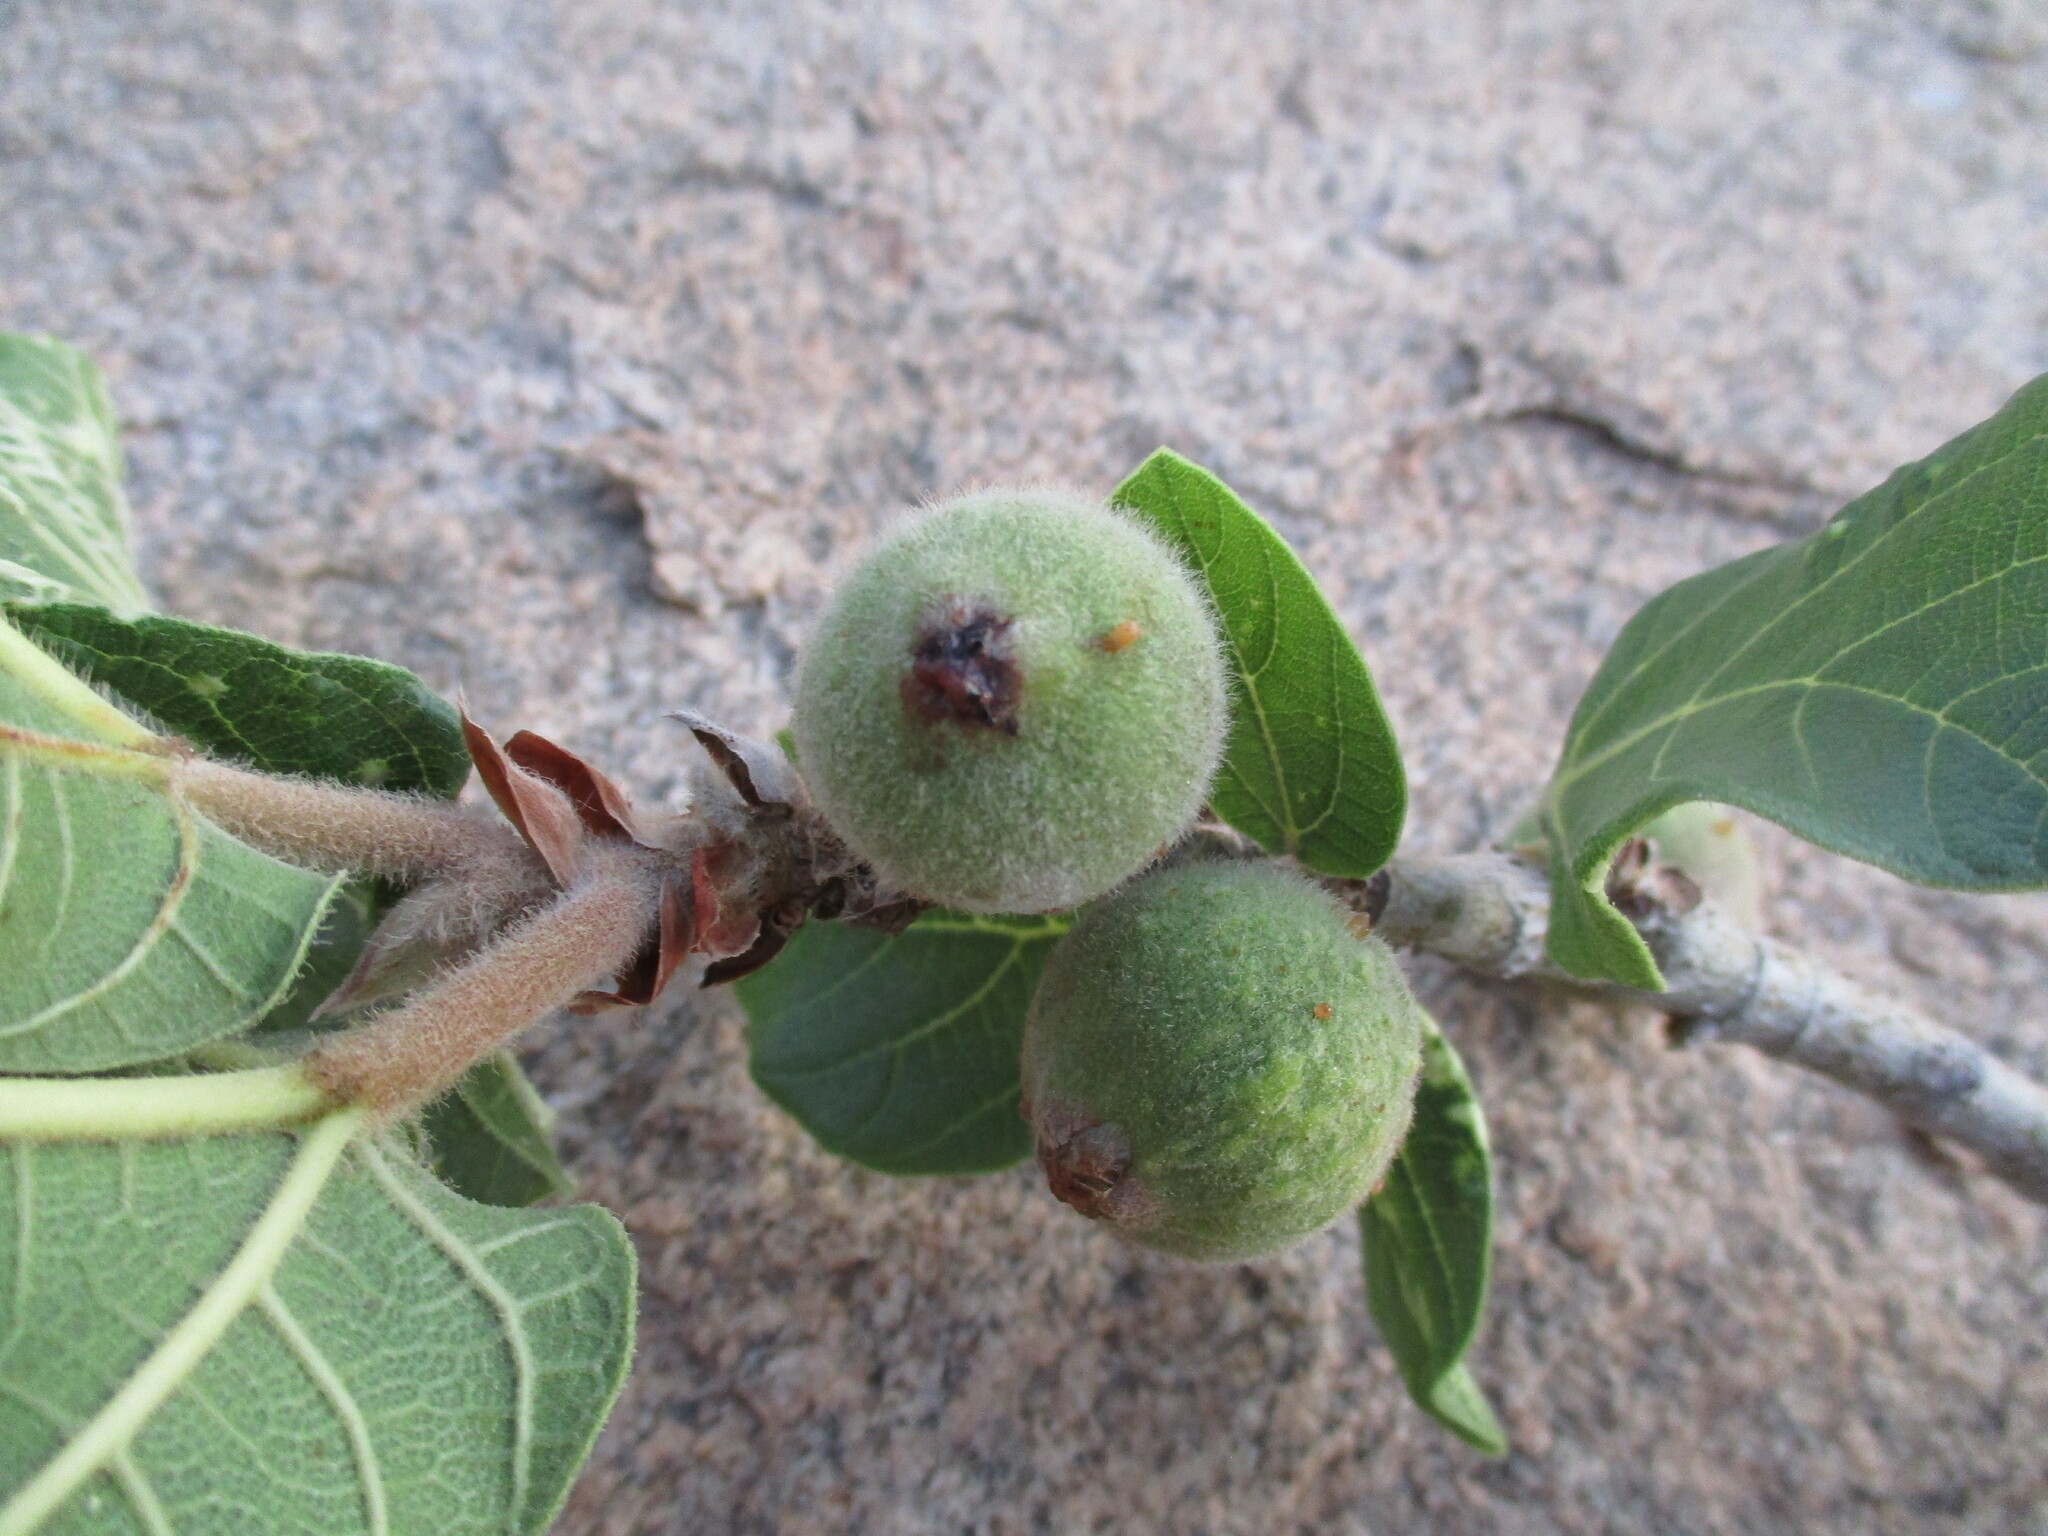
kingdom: Plantae
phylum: Tracheophyta
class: Magnoliopsida
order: Rosales
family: Moraceae
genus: Ficus
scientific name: Ficus sycomorus
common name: Sycomore
